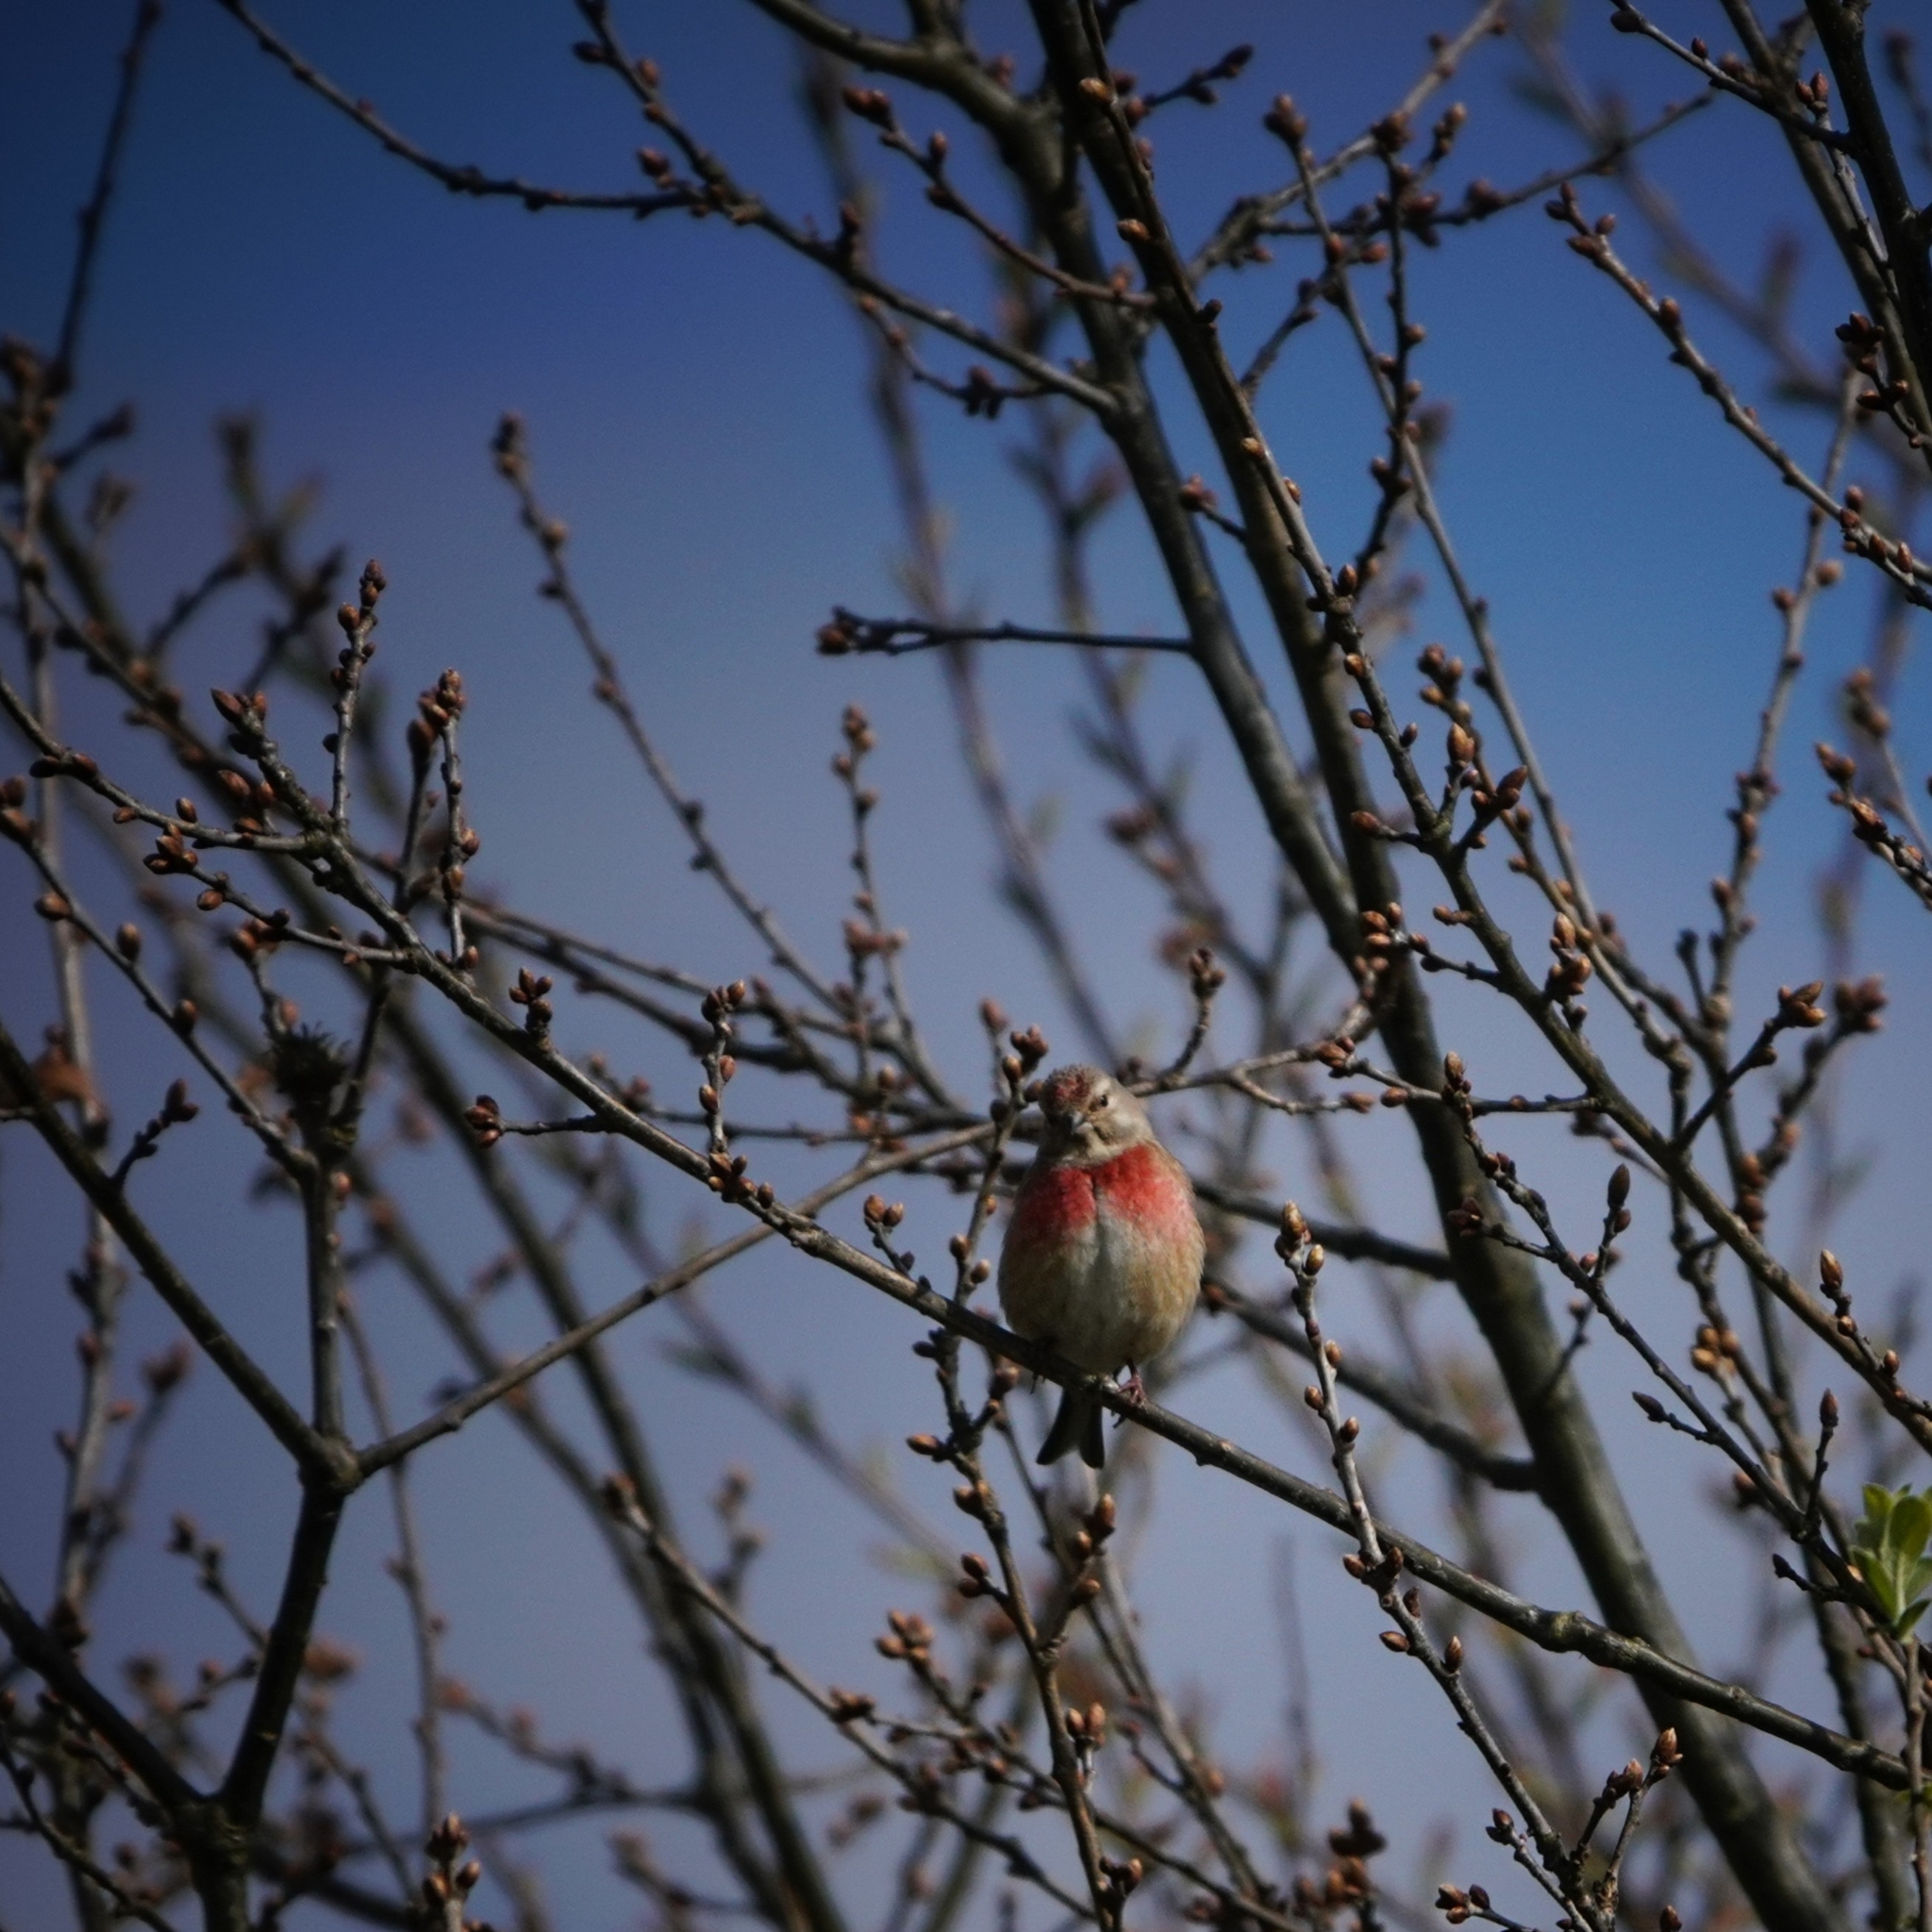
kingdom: Animalia
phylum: Chordata
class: Aves
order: Passeriformes
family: Fringillidae
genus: Linaria
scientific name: Linaria cannabina
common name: Common linnet
